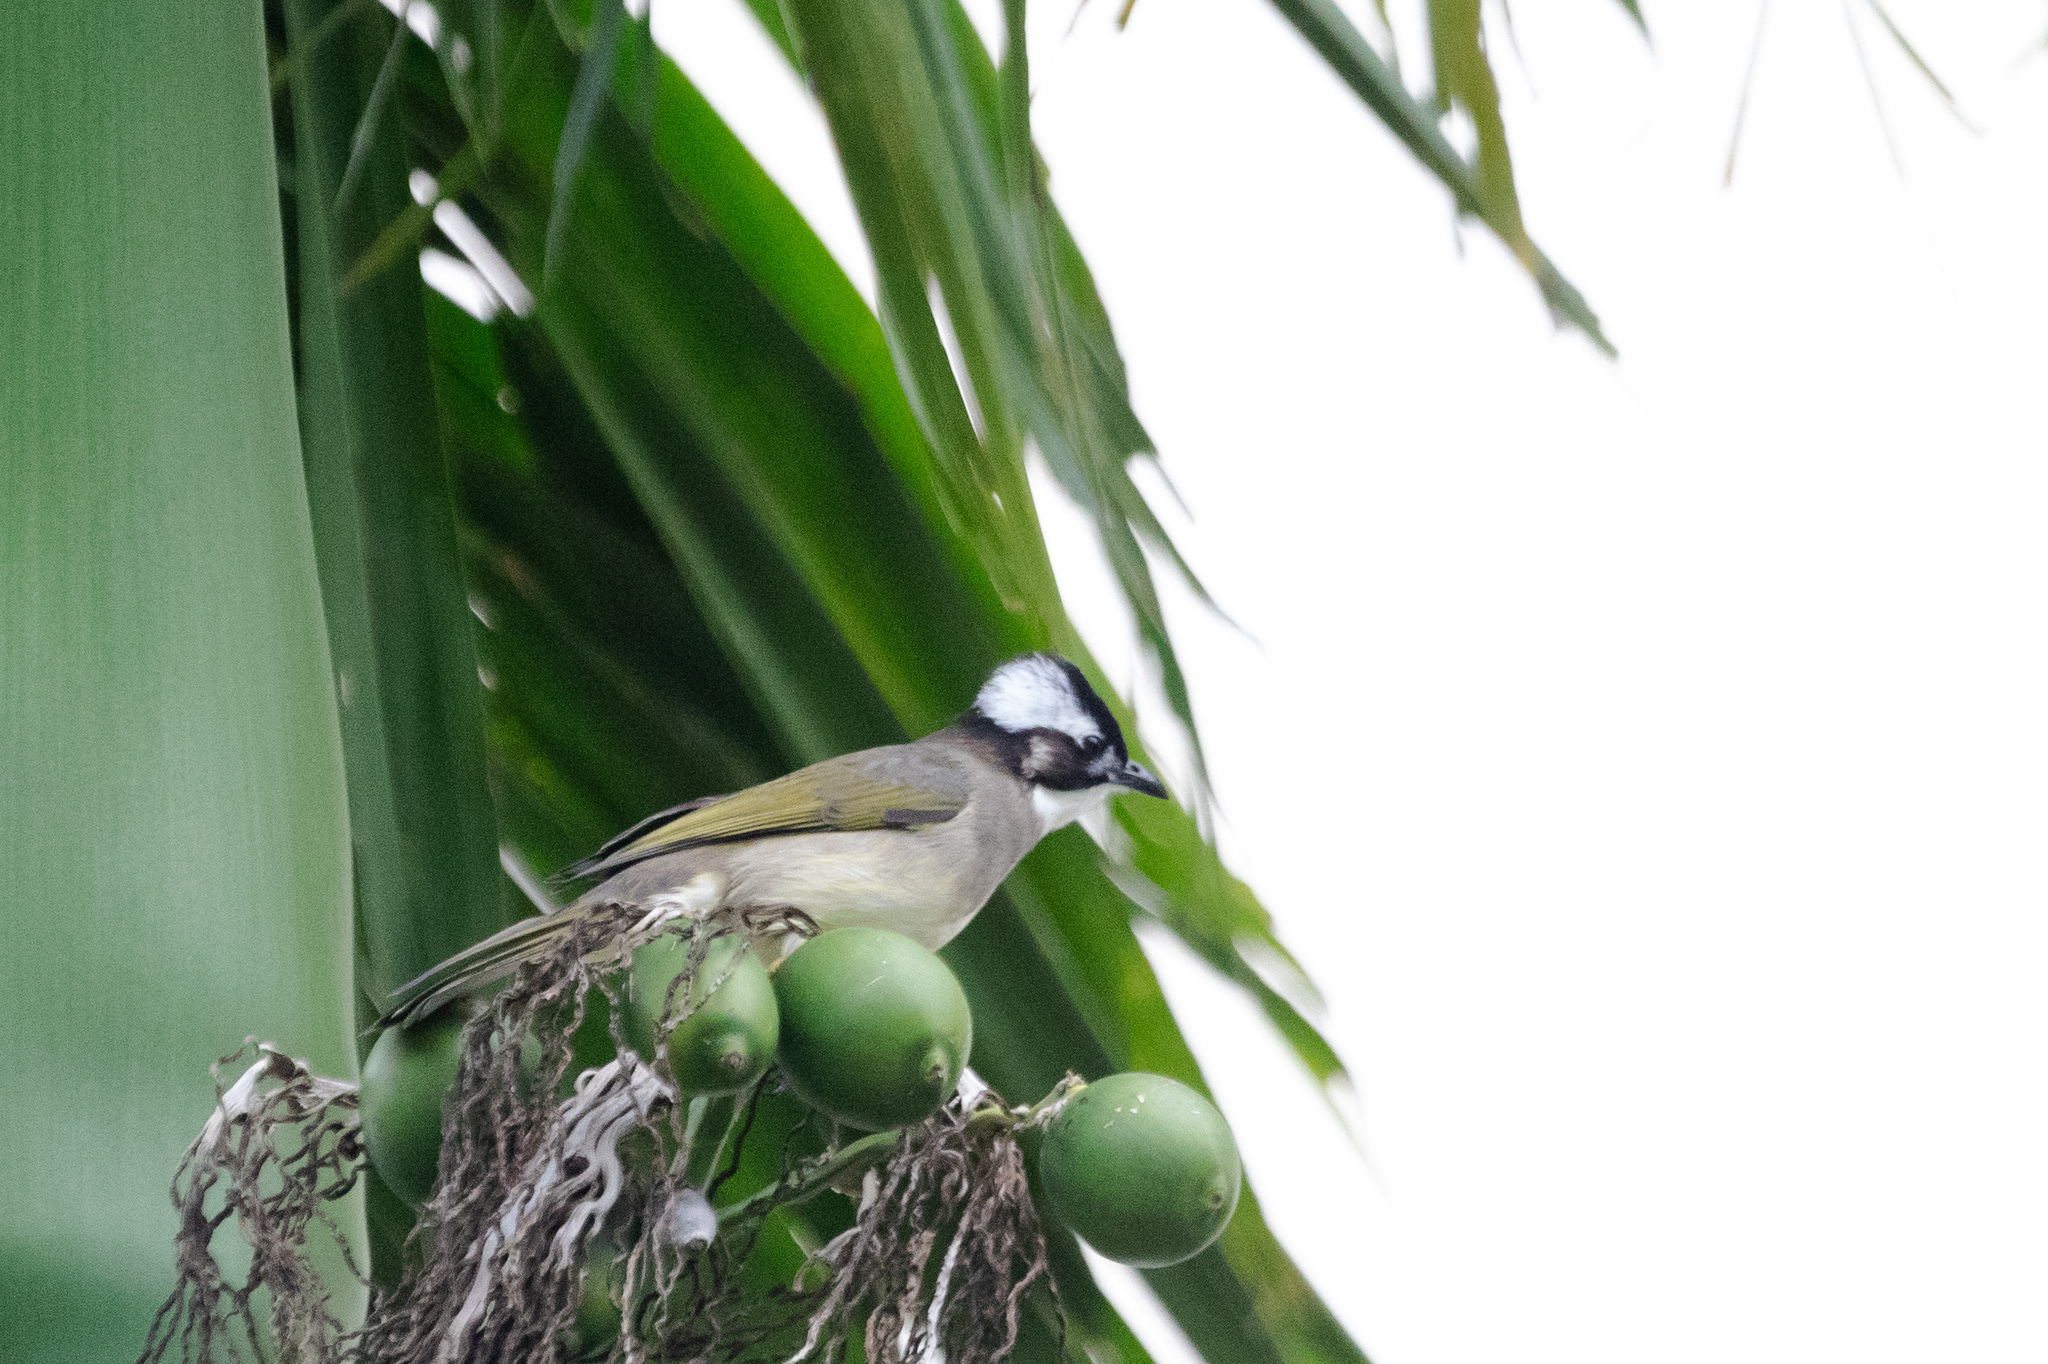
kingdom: Animalia
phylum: Chordata
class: Aves
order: Passeriformes
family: Pycnonotidae
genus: Pycnonotus
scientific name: Pycnonotus sinensis
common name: Light-vented bulbul
